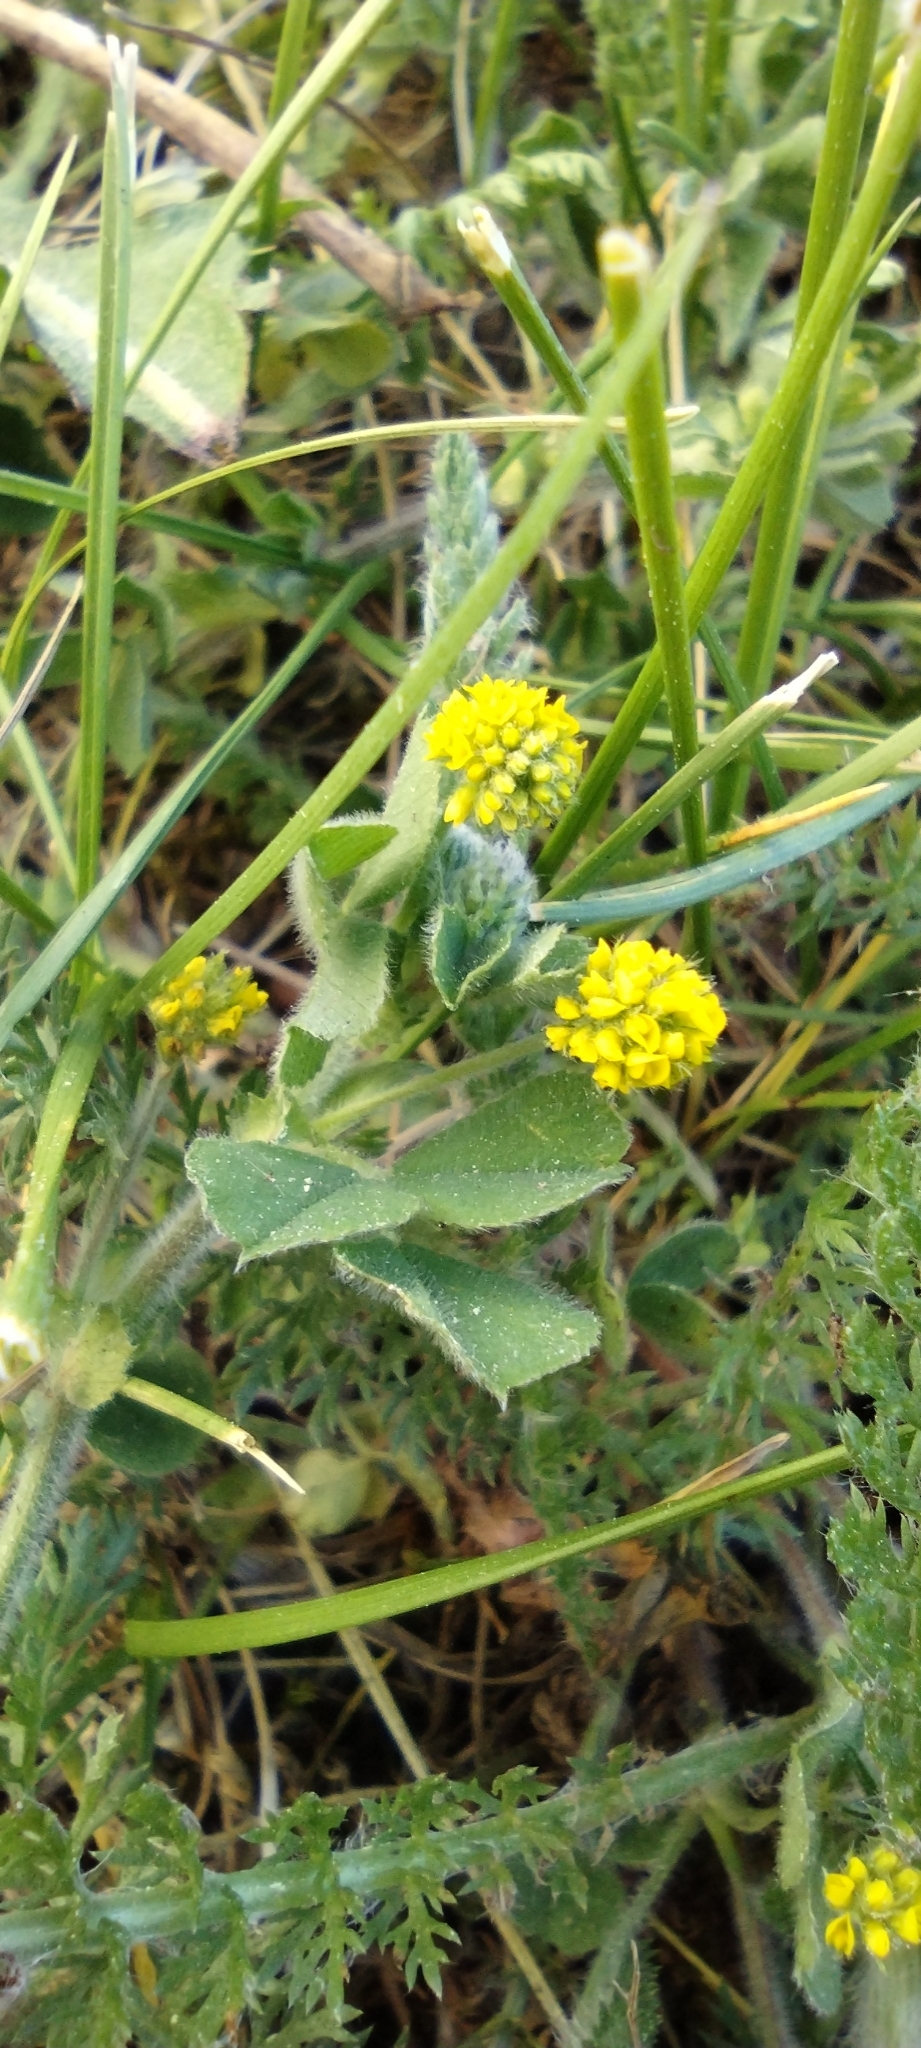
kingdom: Plantae
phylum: Tracheophyta
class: Magnoliopsida
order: Fabales
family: Fabaceae
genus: Medicago
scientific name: Medicago lupulina
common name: Black medick
